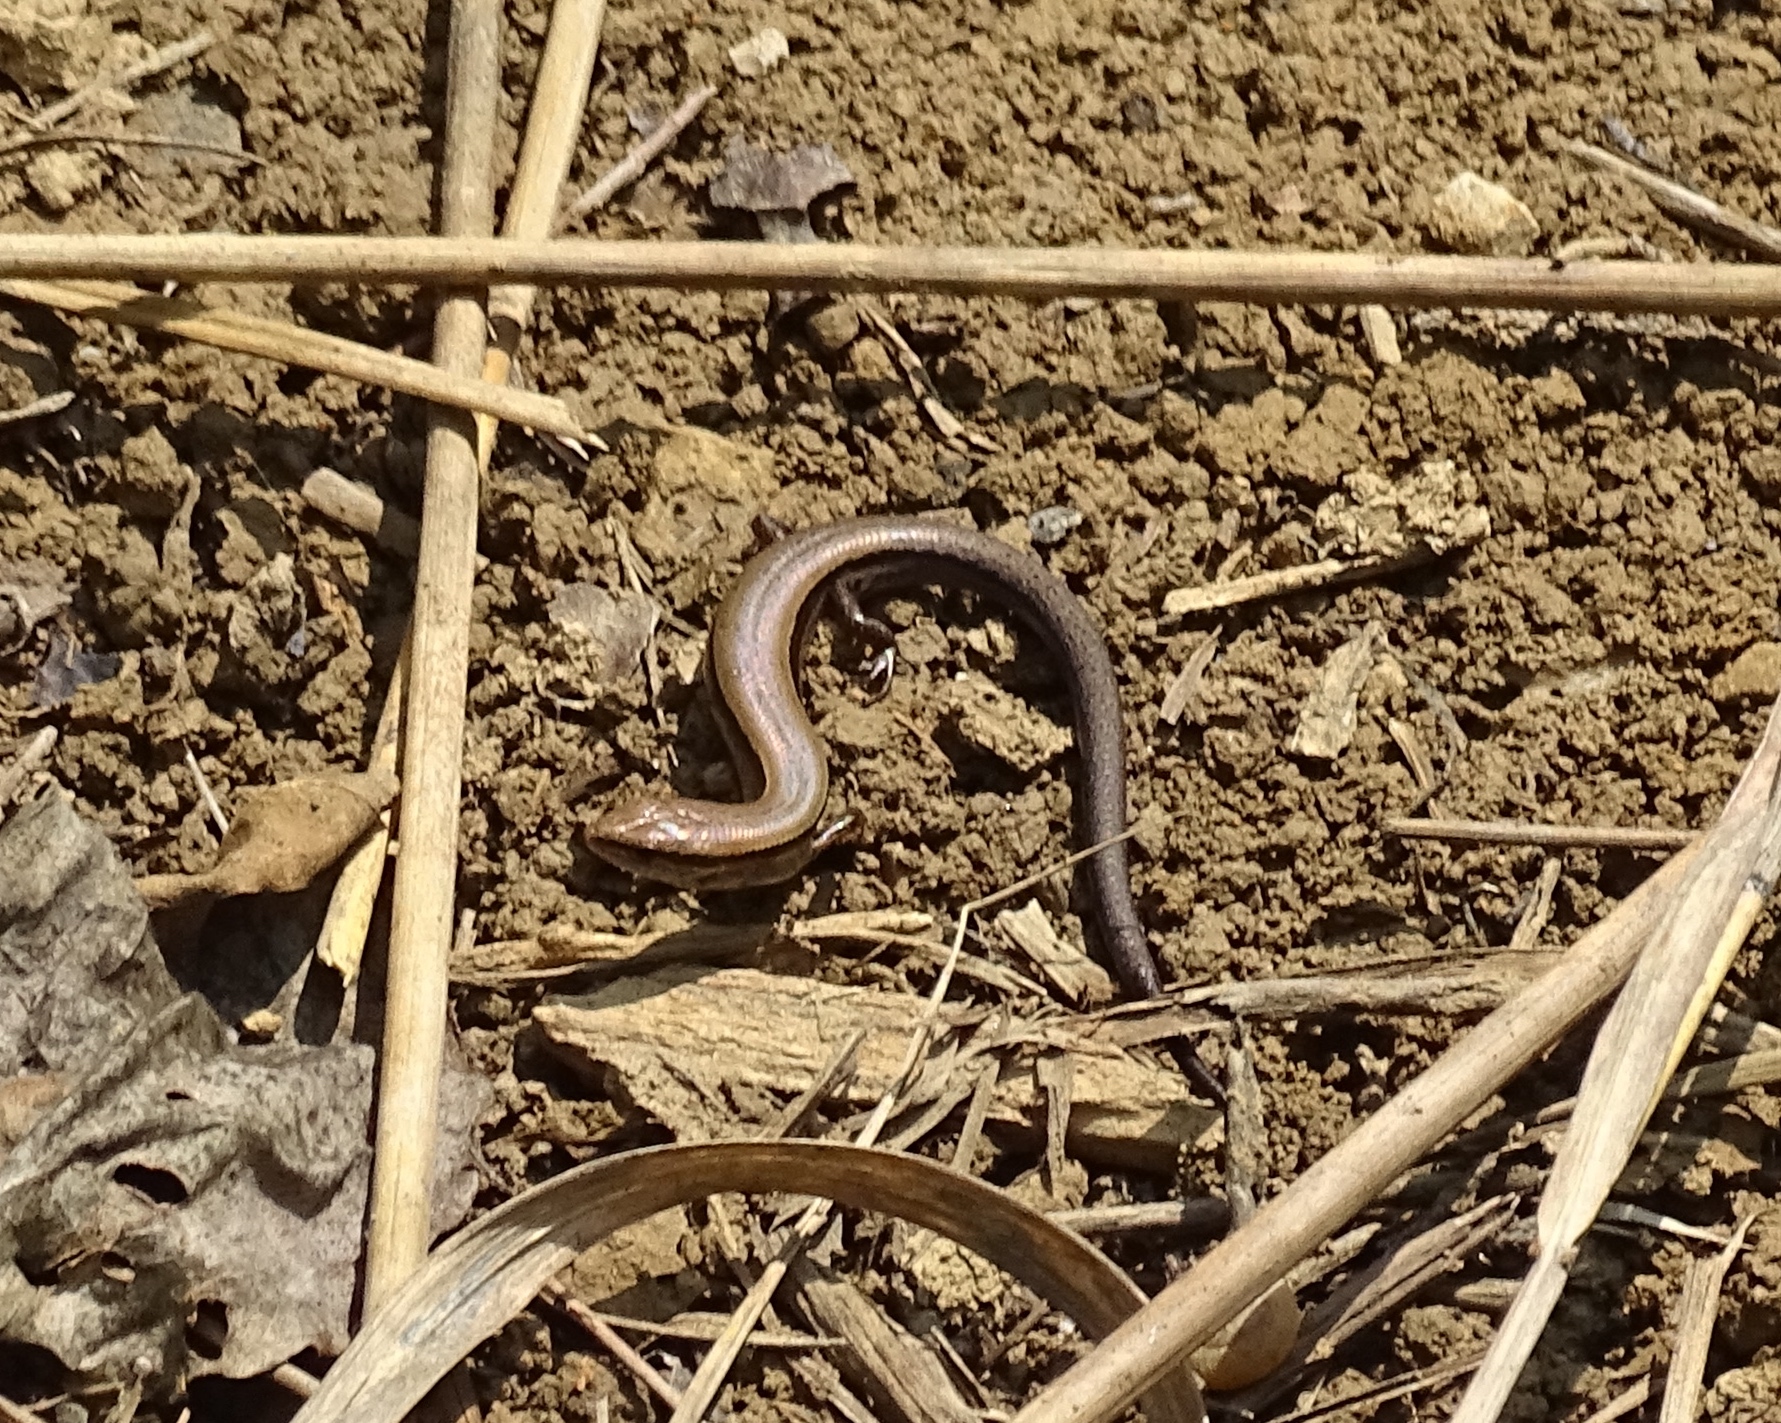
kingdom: Animalia
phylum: Chordata
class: Squamata
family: Scincidae
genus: Scincella
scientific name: Scincella lateralis
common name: Ground skink
